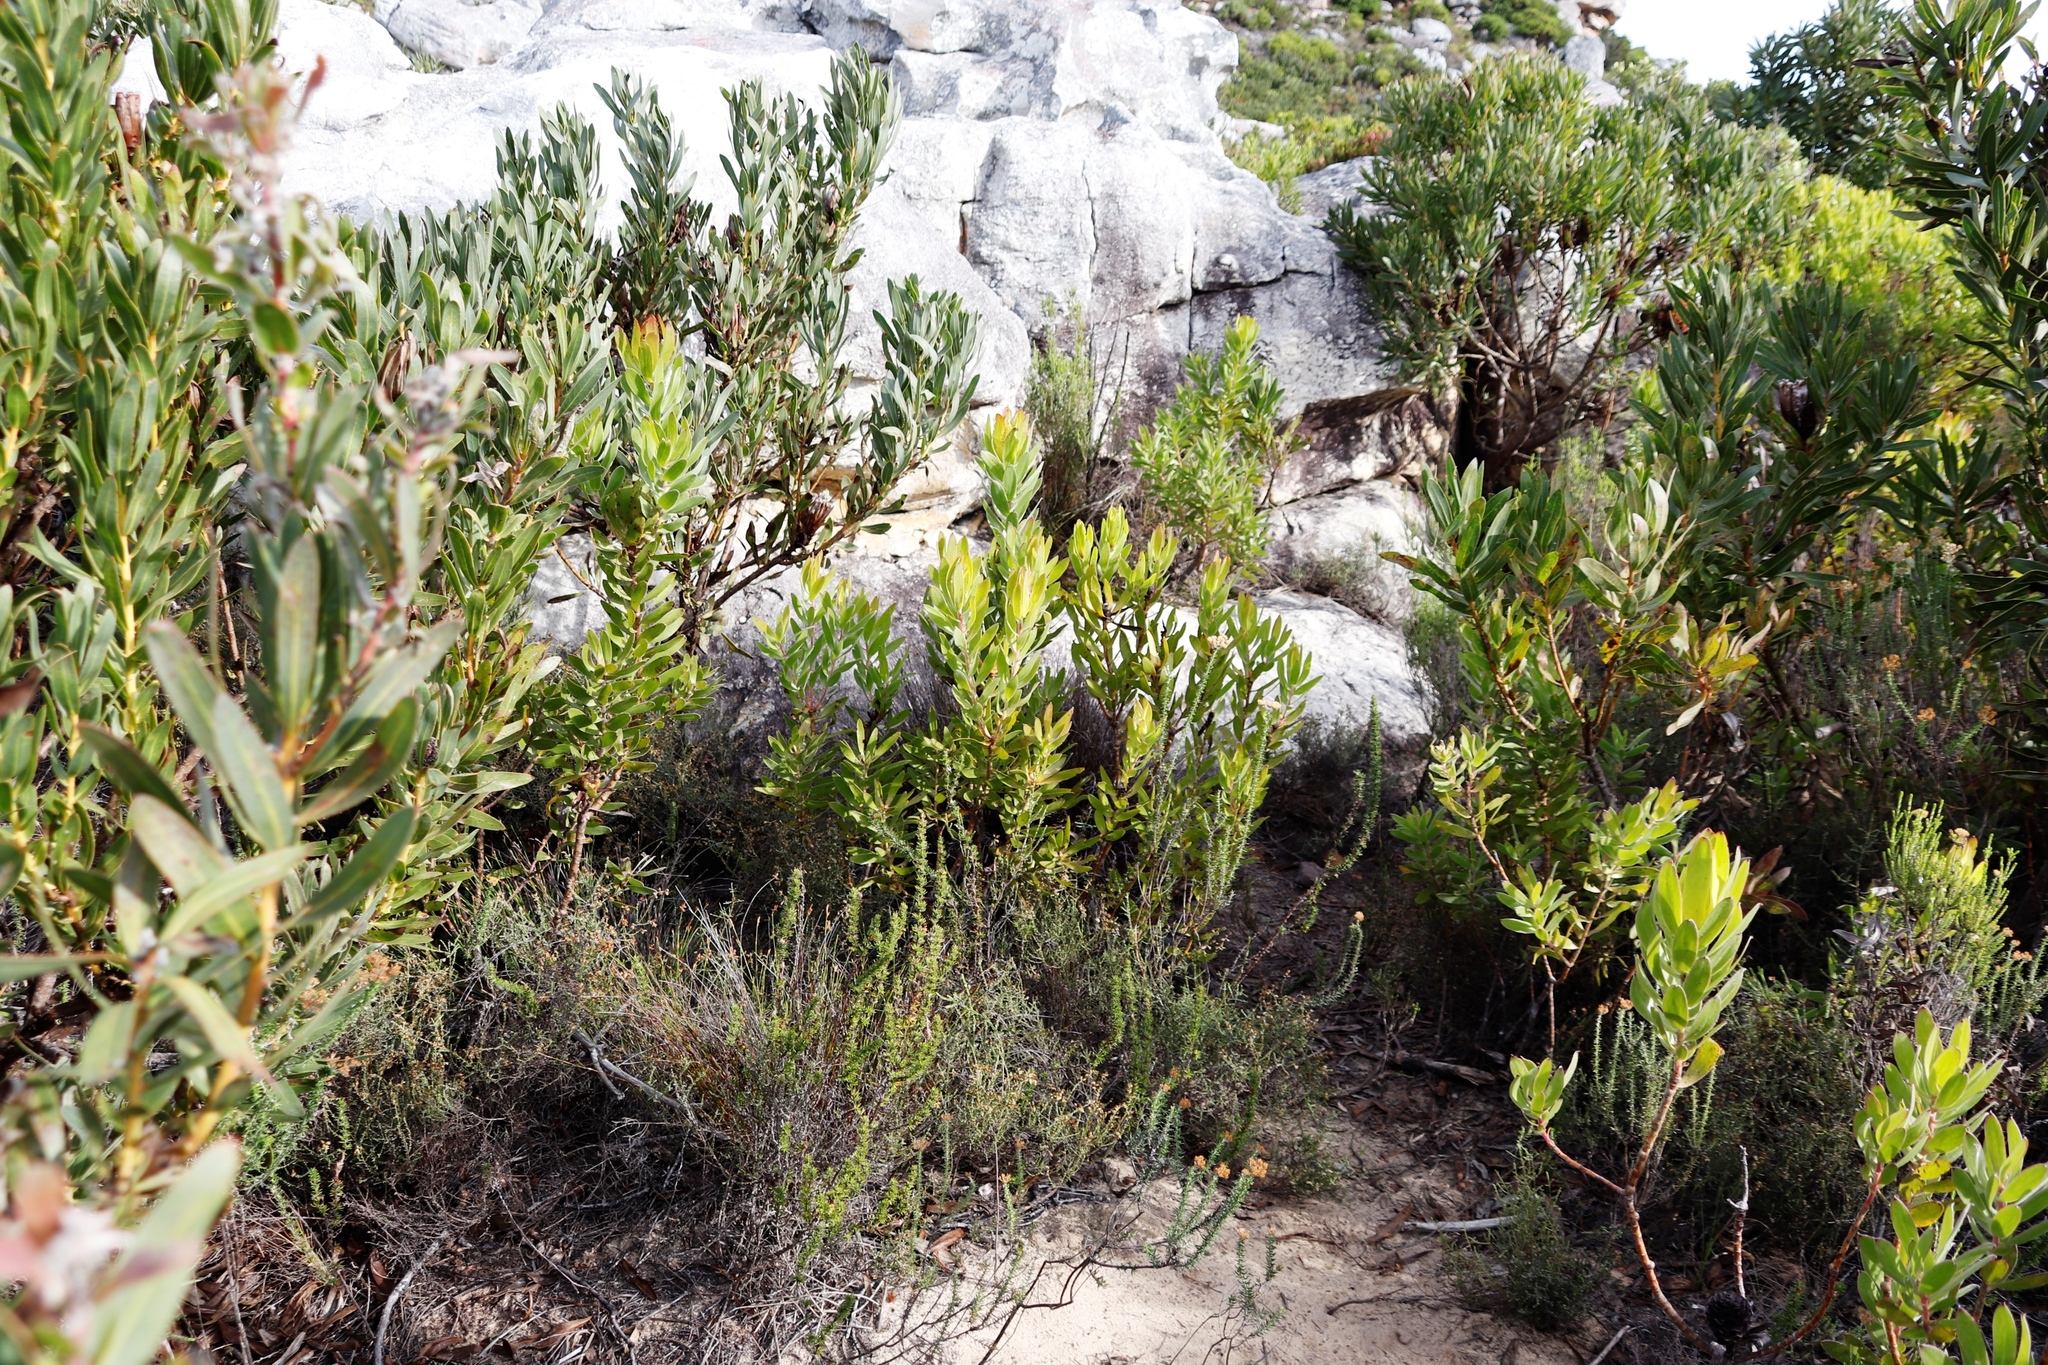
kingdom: Plantae
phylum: Tracheophyta
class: Magnoliopsida
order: Proteales
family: Proteaceae
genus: Leucadendron
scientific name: Leucadendron laureolum
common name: Golden sunshinebush
